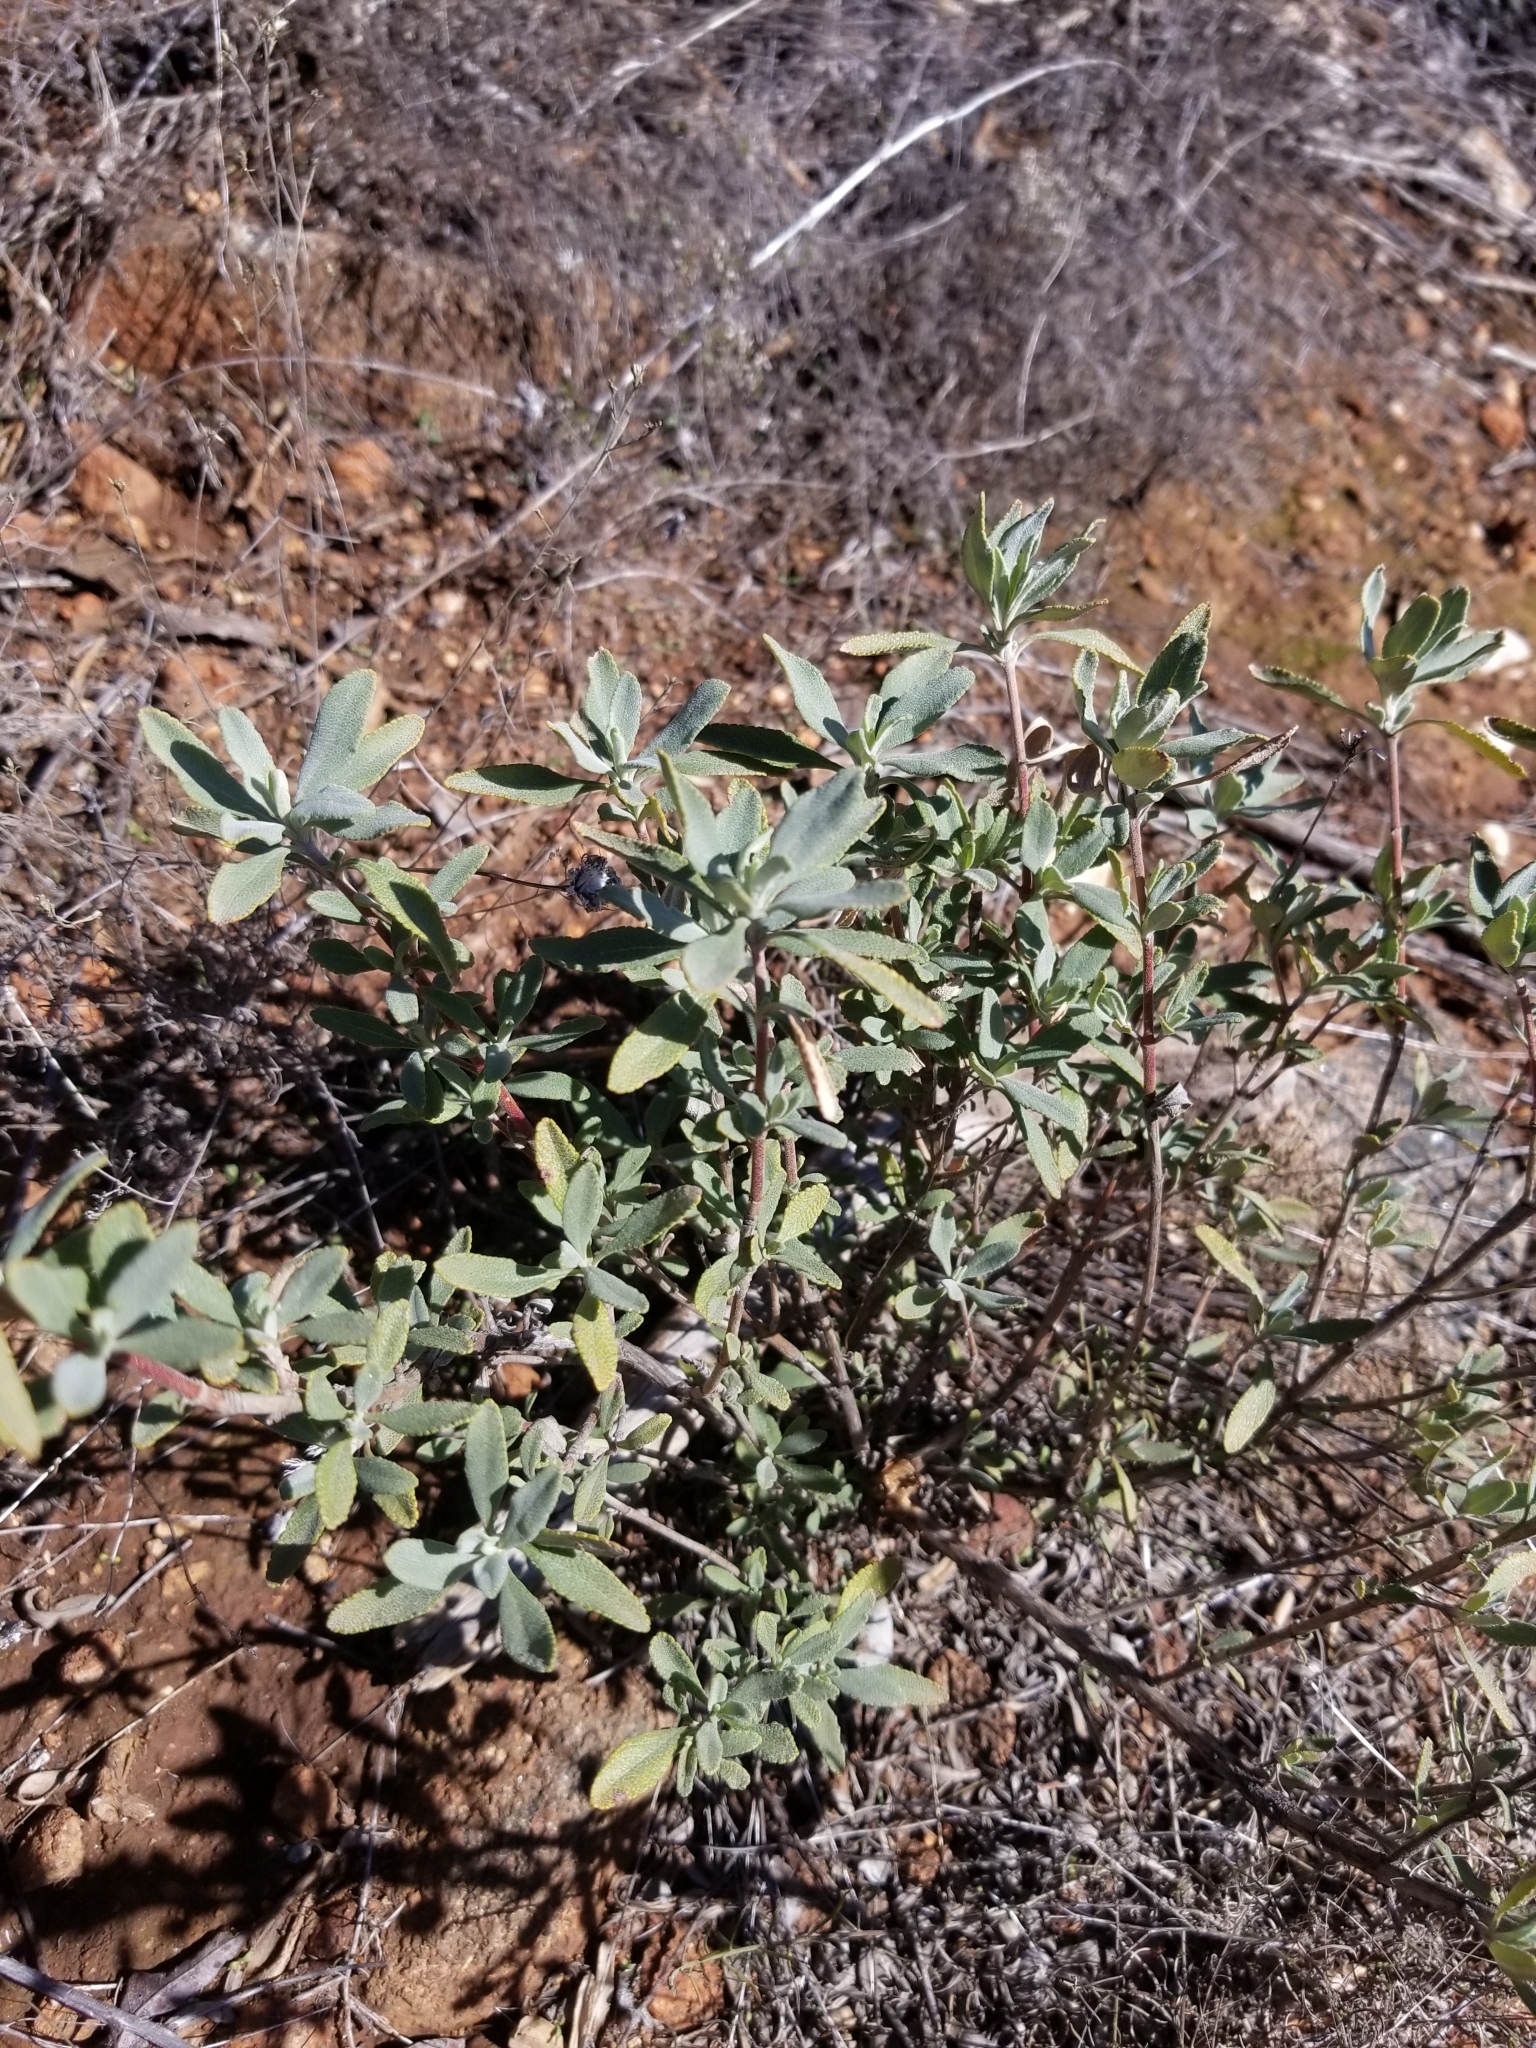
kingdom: Plantae
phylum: Tracheophyta
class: Magnoliopsida
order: Lamiales
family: Lamiaceae
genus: Salvia
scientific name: Salvia clevelandii
